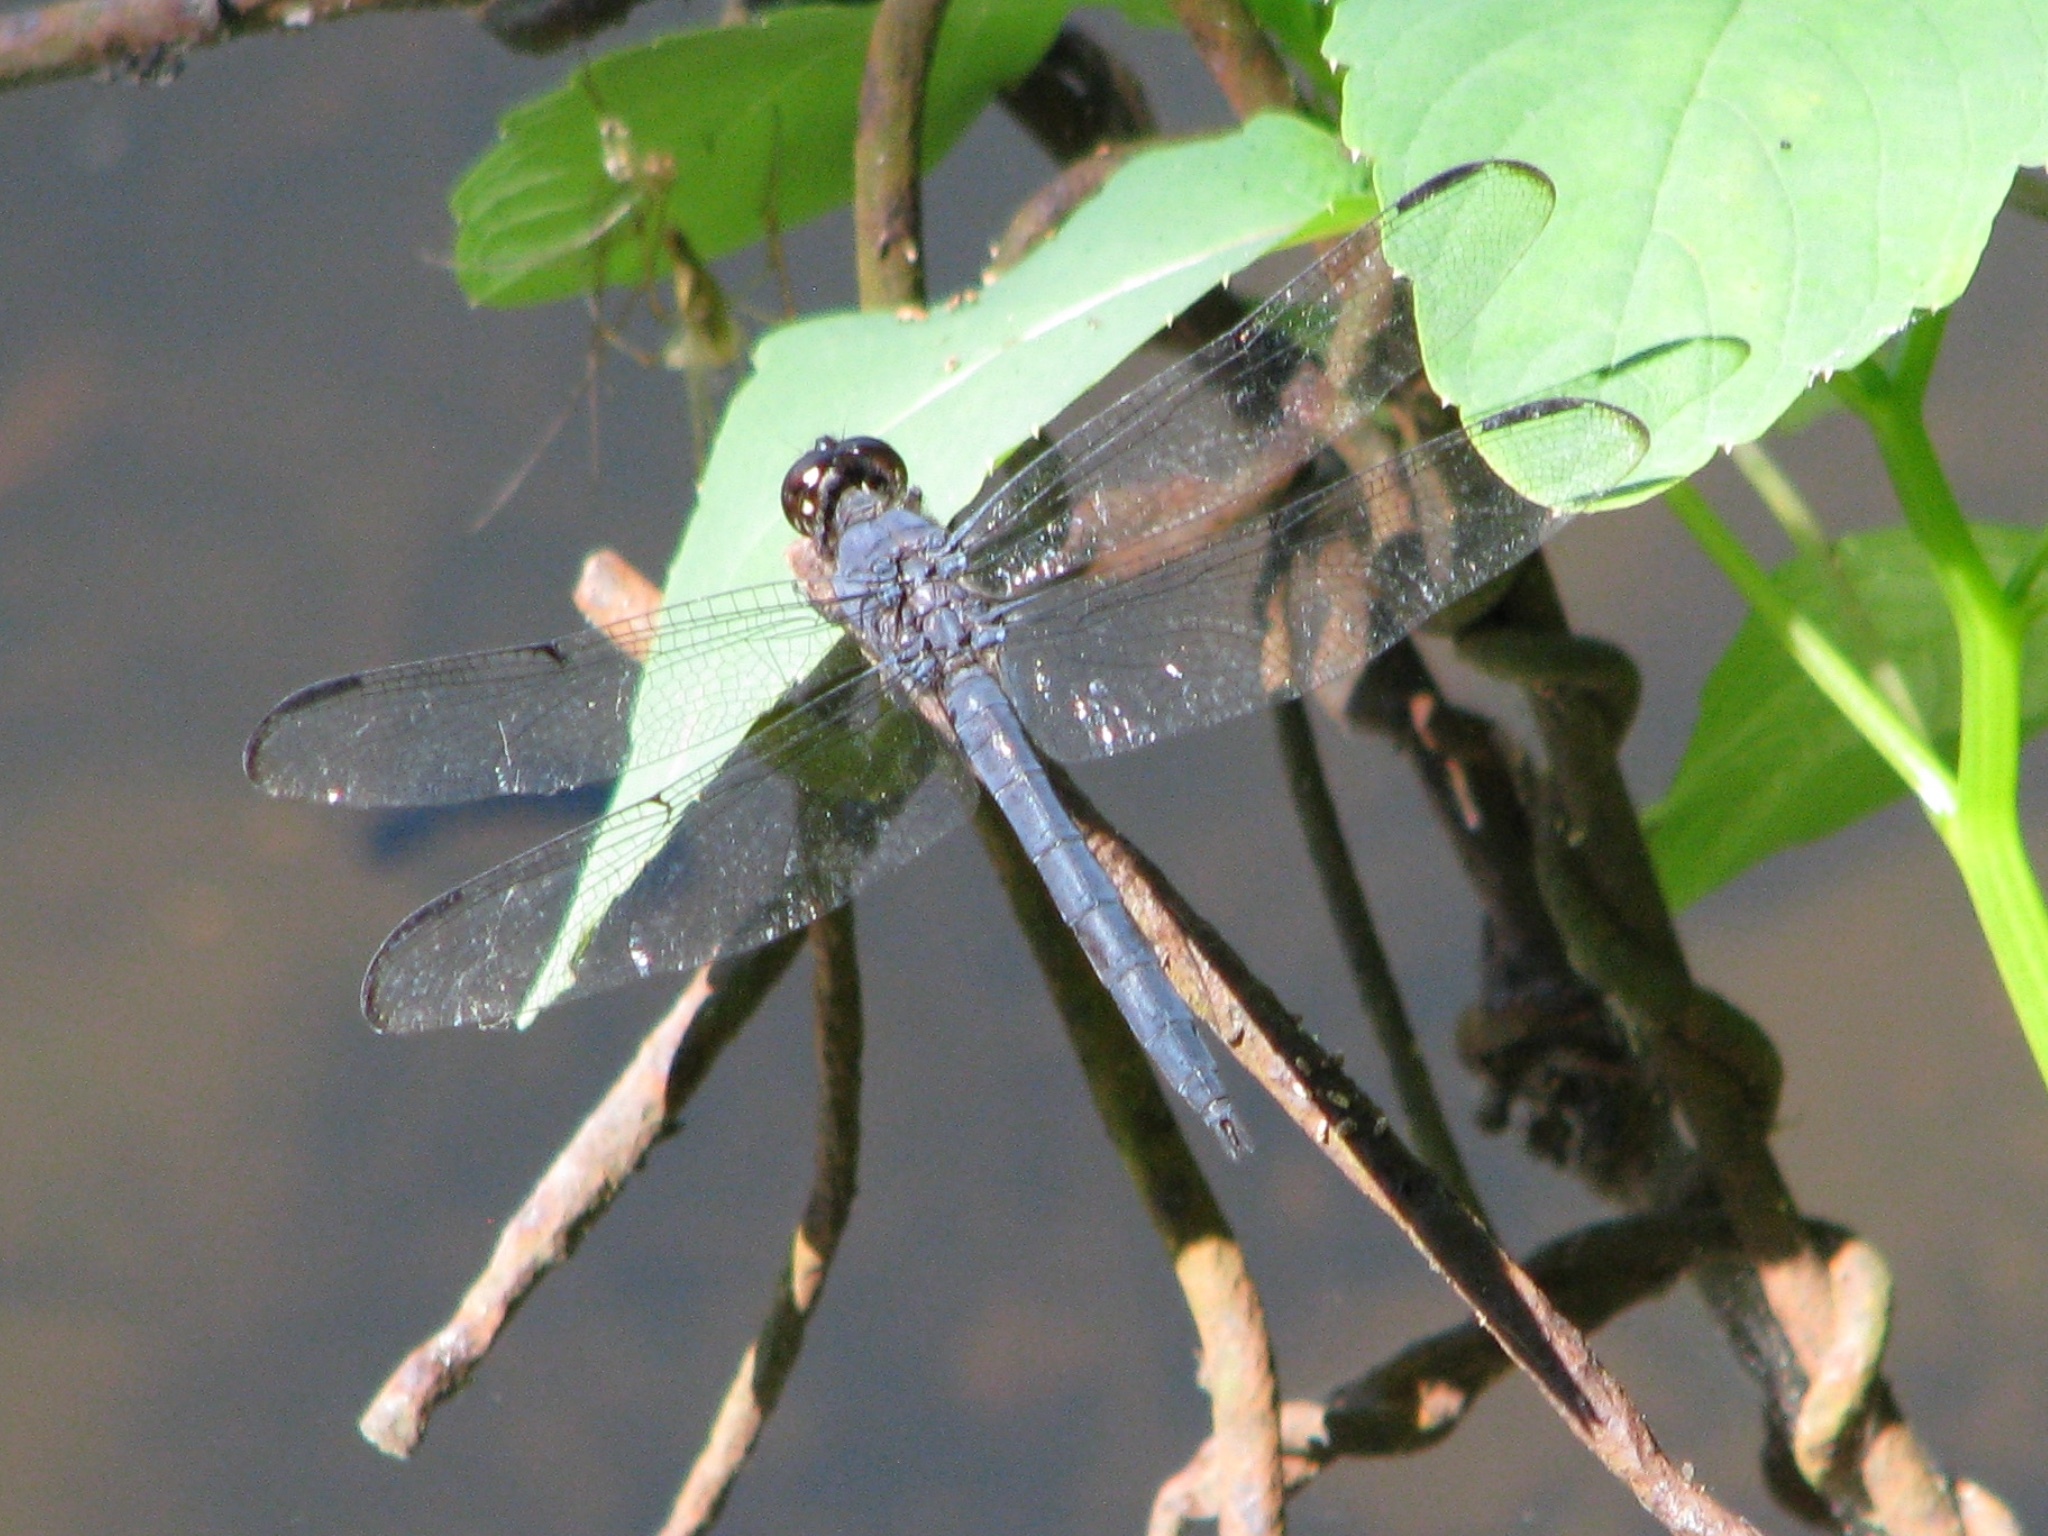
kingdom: Animalia
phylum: Arthropoda
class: Insecta
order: Odonata
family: Libellulidae
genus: Libellula
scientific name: Libellula incesta
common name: Slaty skimmer
